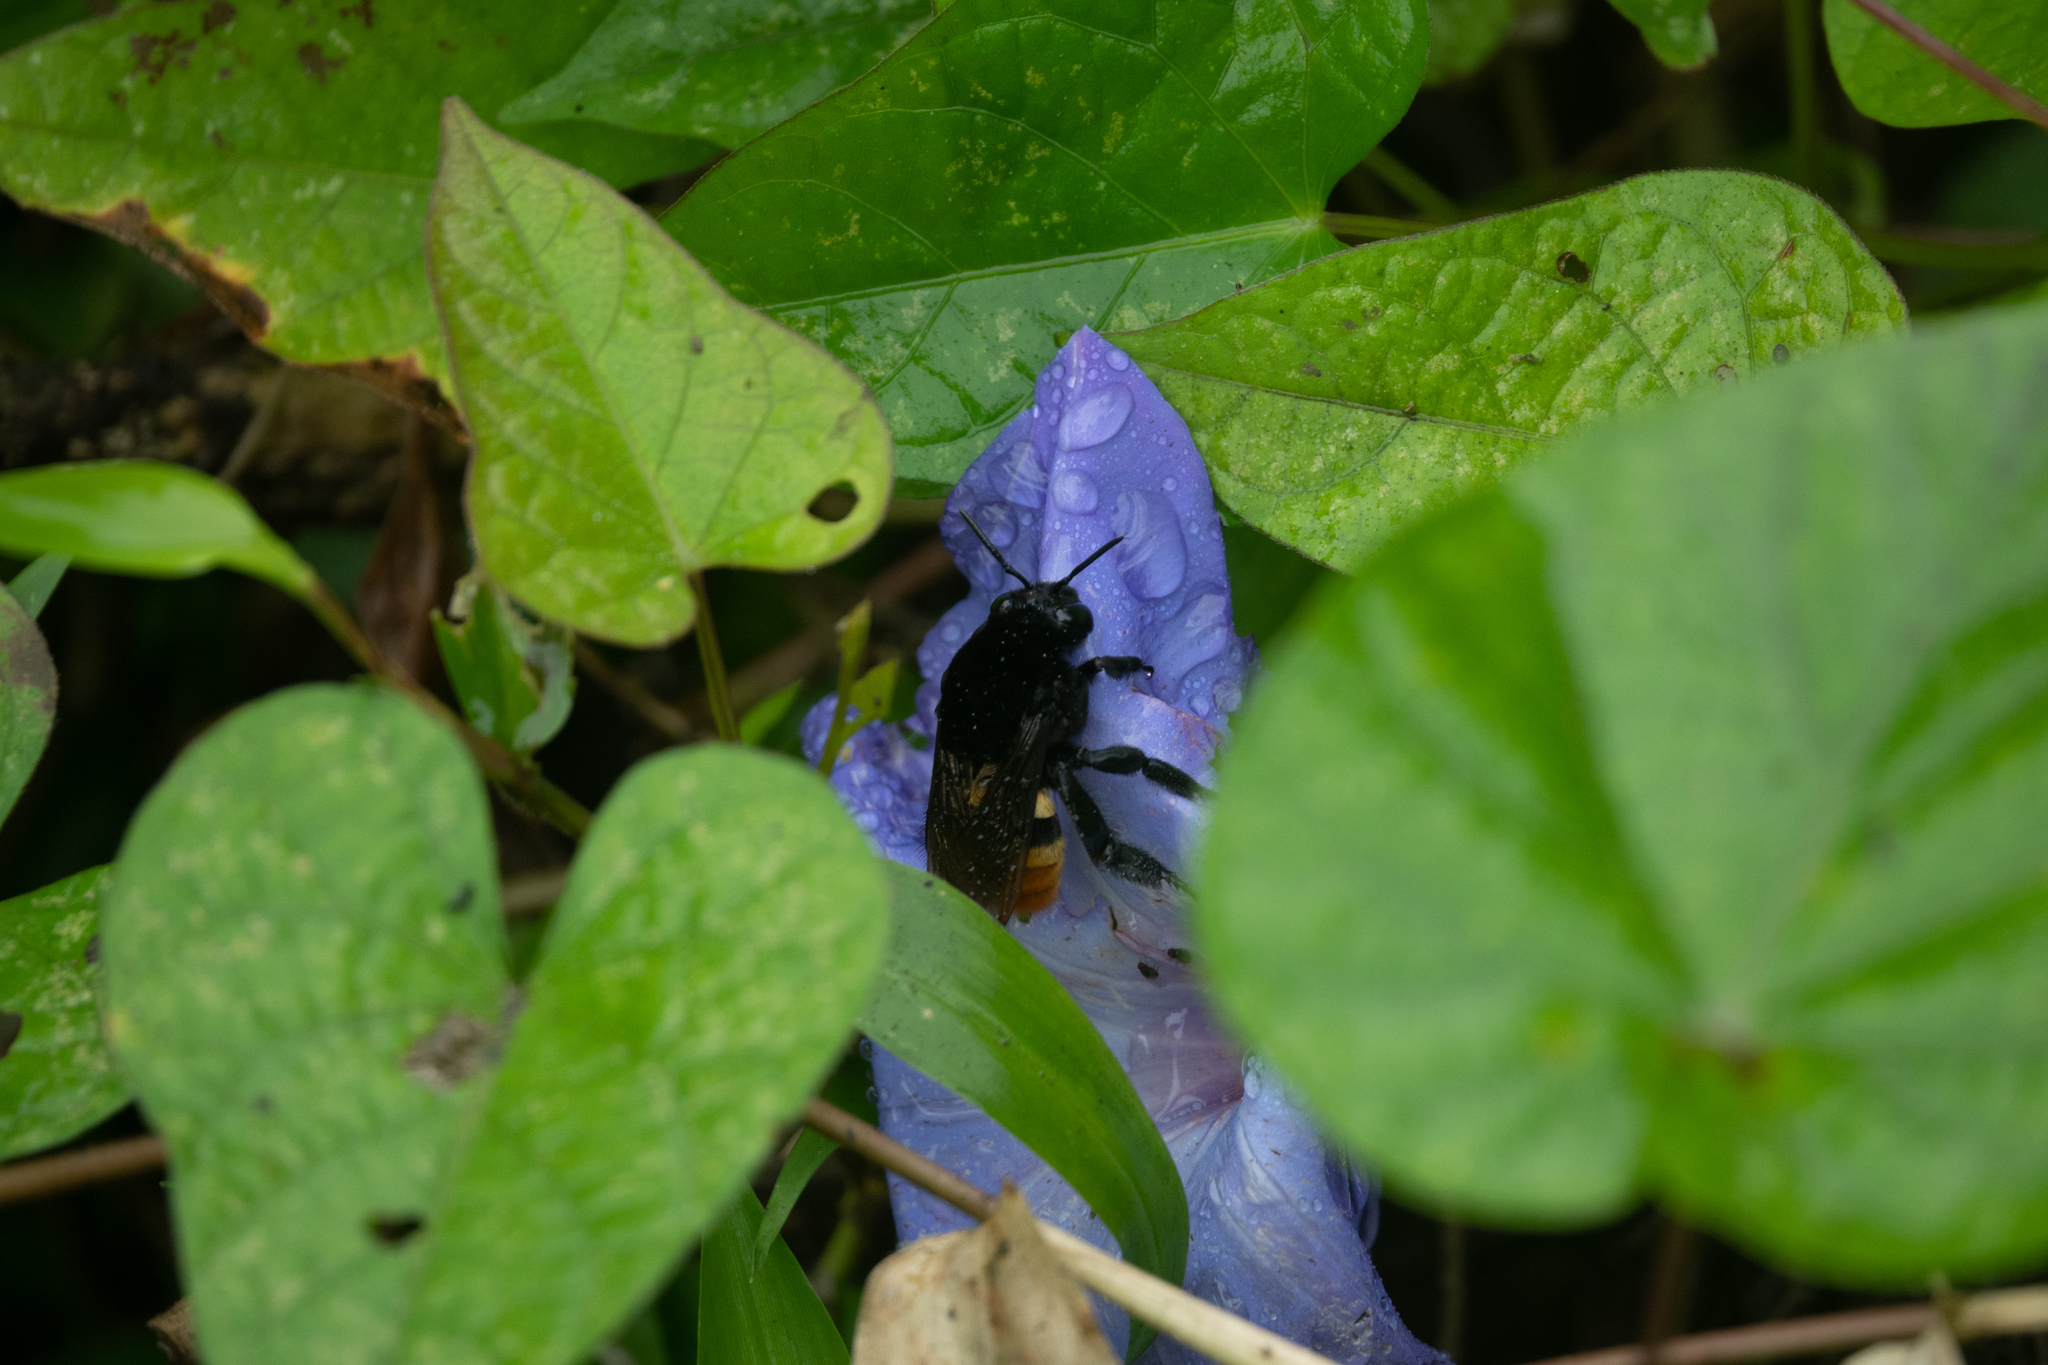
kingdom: Animalia
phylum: Arthropoda
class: Insecta
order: Hymenoptera
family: Apidae
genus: Eulaema
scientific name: Eulaema cingulata
